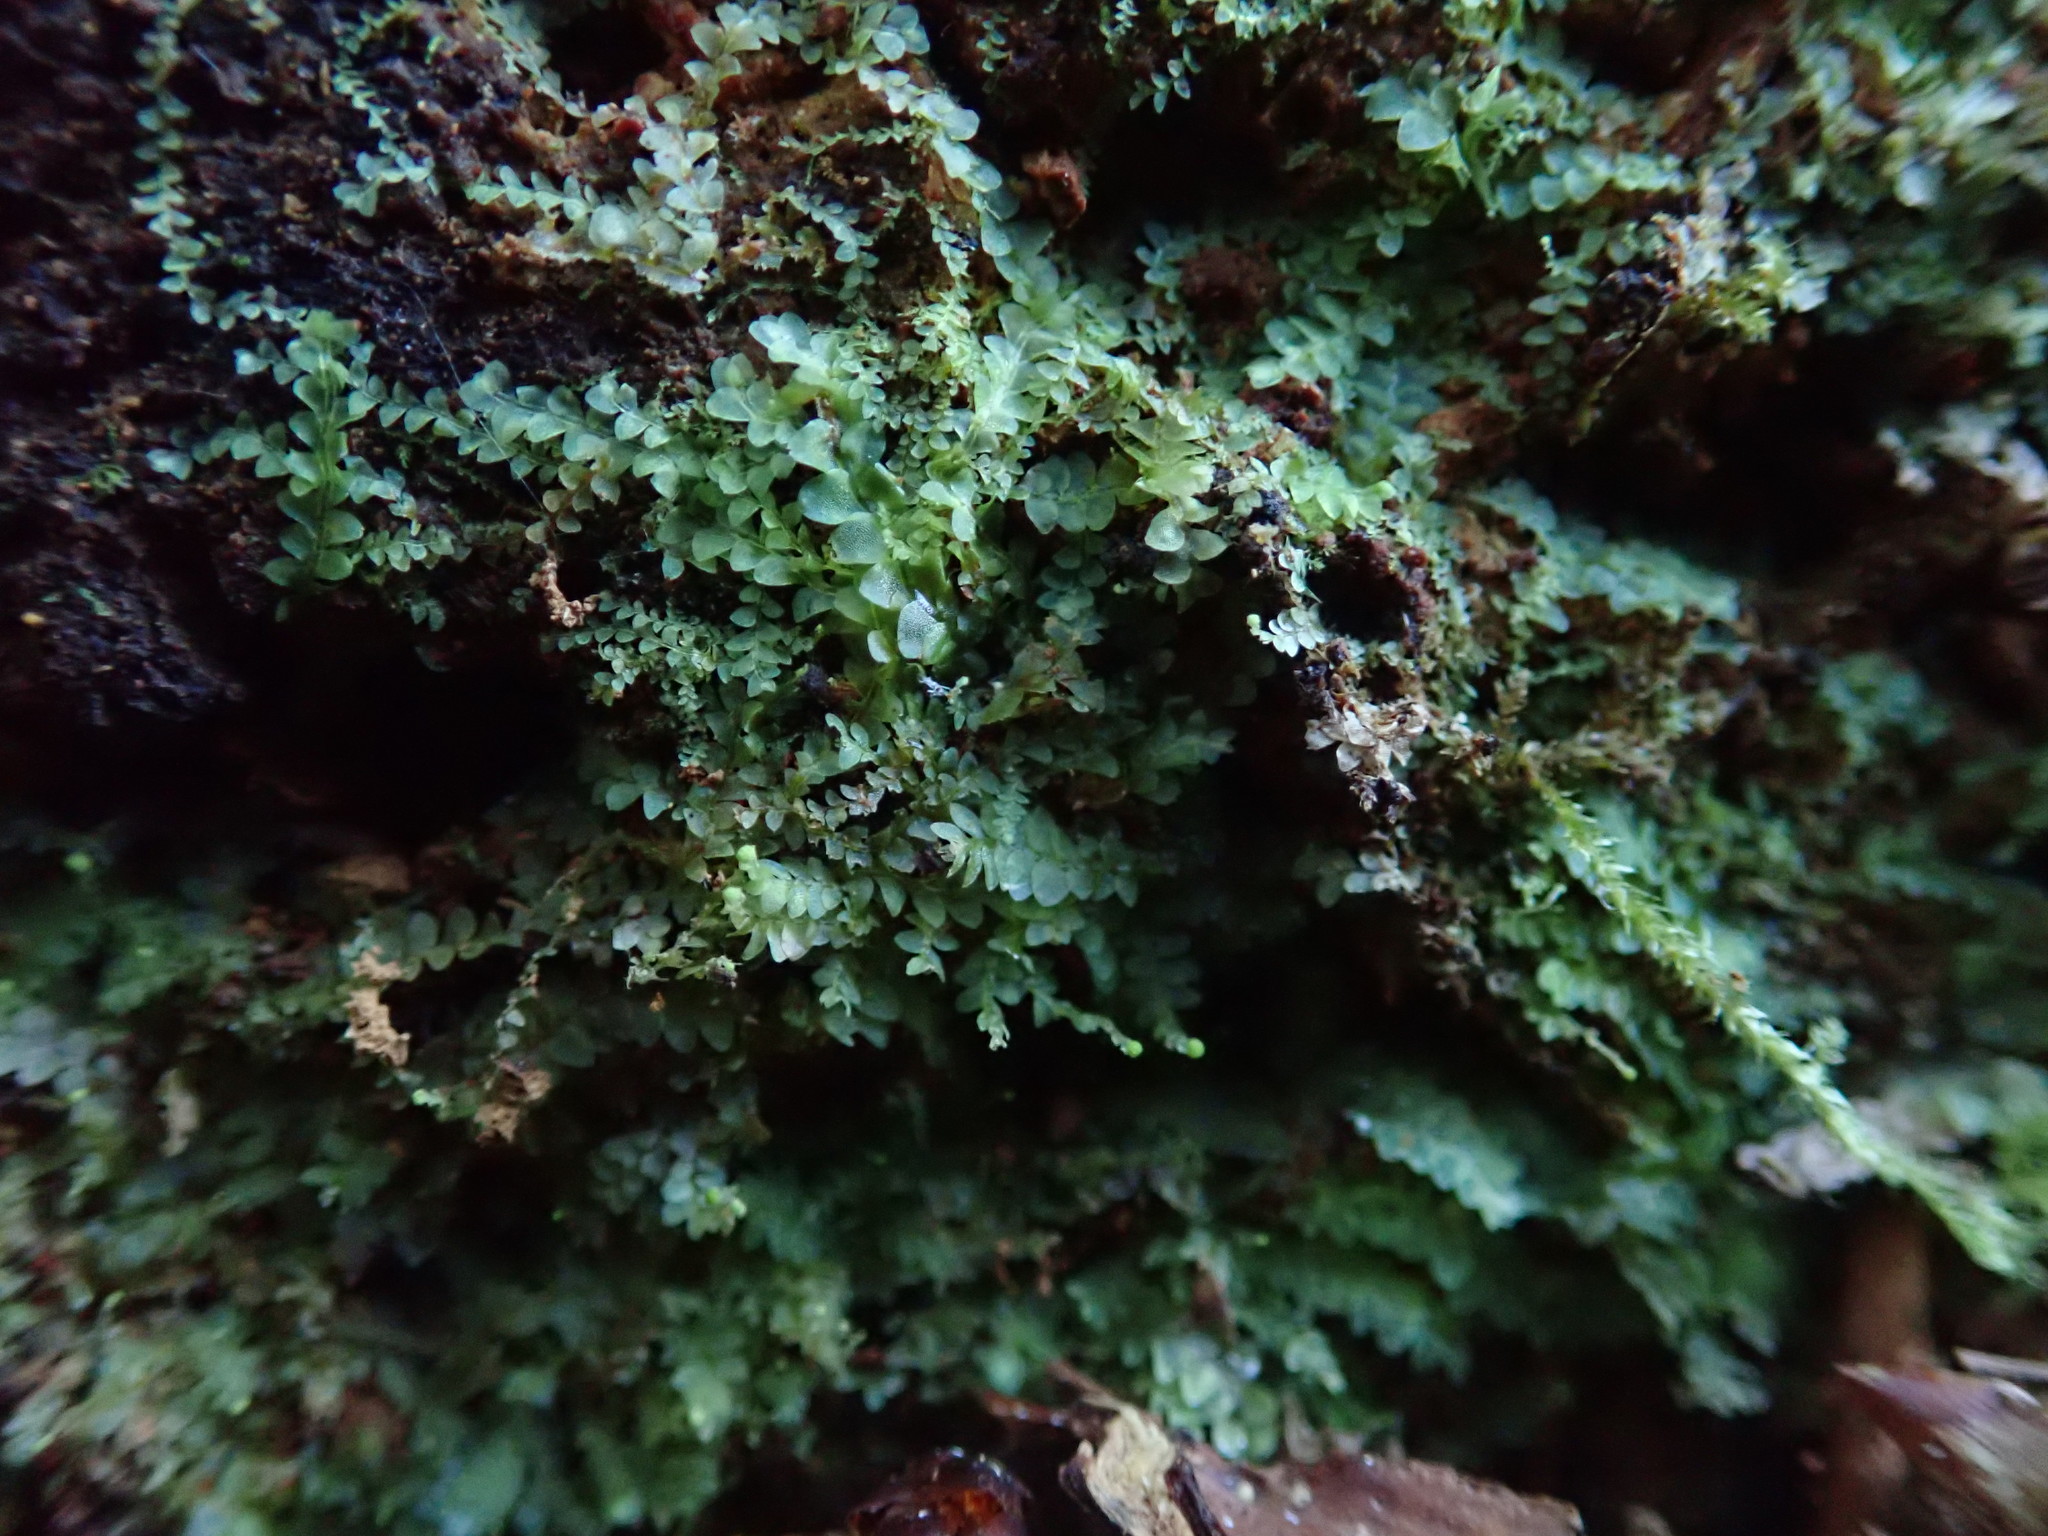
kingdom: Plantae
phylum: Marchantiophyta
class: Jungermanniopsida
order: Jungermanniales
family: Lophocoleaceae
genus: Chiloscyphus
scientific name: Chiloscyphus polyanthos
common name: Square-leaved crestwort
